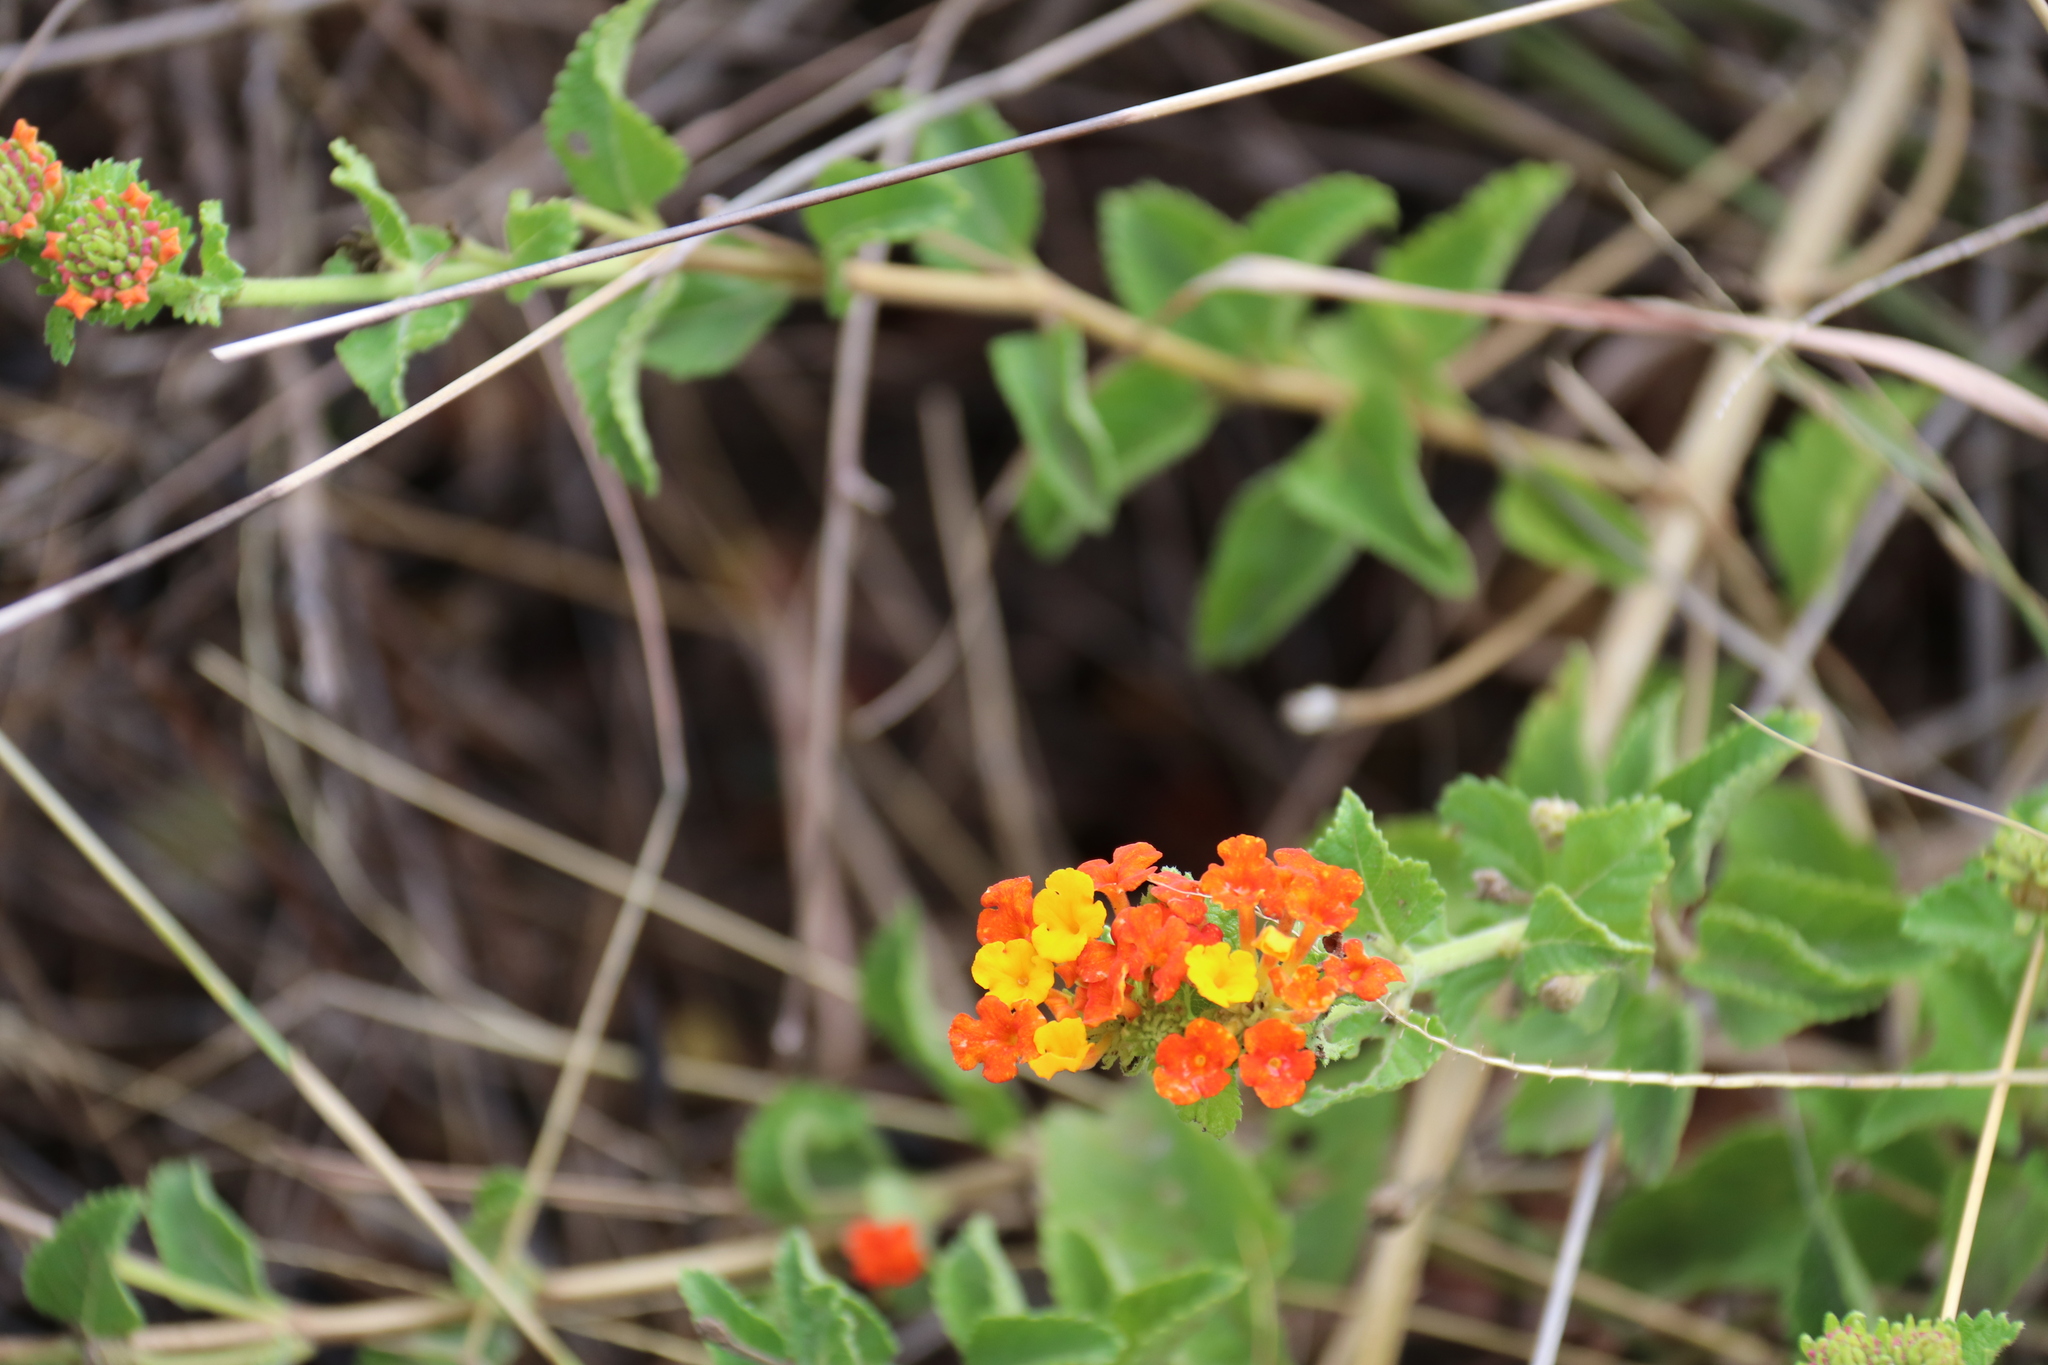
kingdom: Plantae
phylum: Tracheophyta
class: Magnoliopsida
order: Lamiales
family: Verbenaceae
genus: Lantana
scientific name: Lantana urticoides
